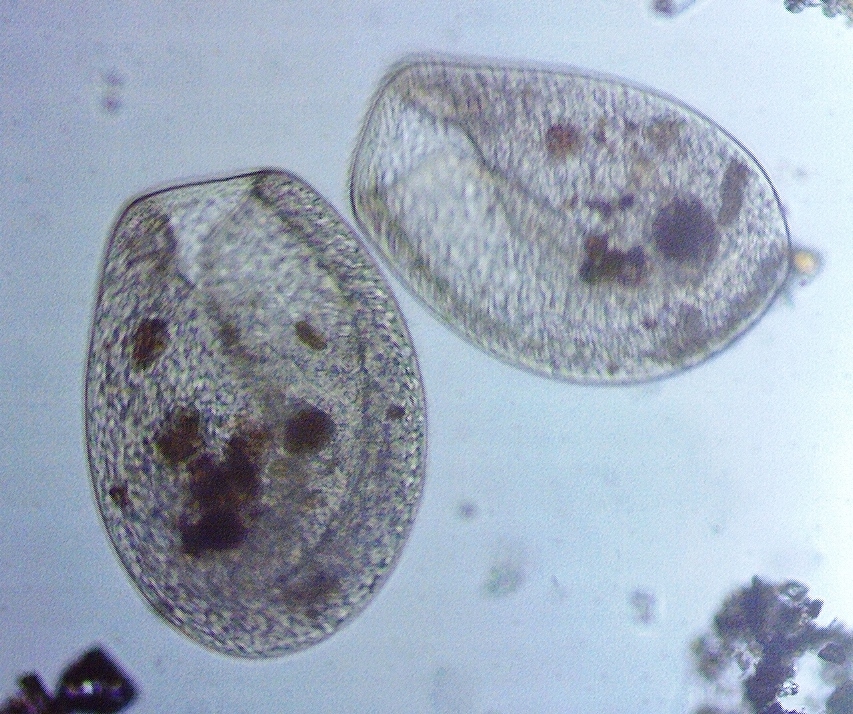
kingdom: Chromista
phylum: Ciliophora
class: Colpodea
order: Bursariomorphida
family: Bursariidae
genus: Bursaria
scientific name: Bursaria truncatella
